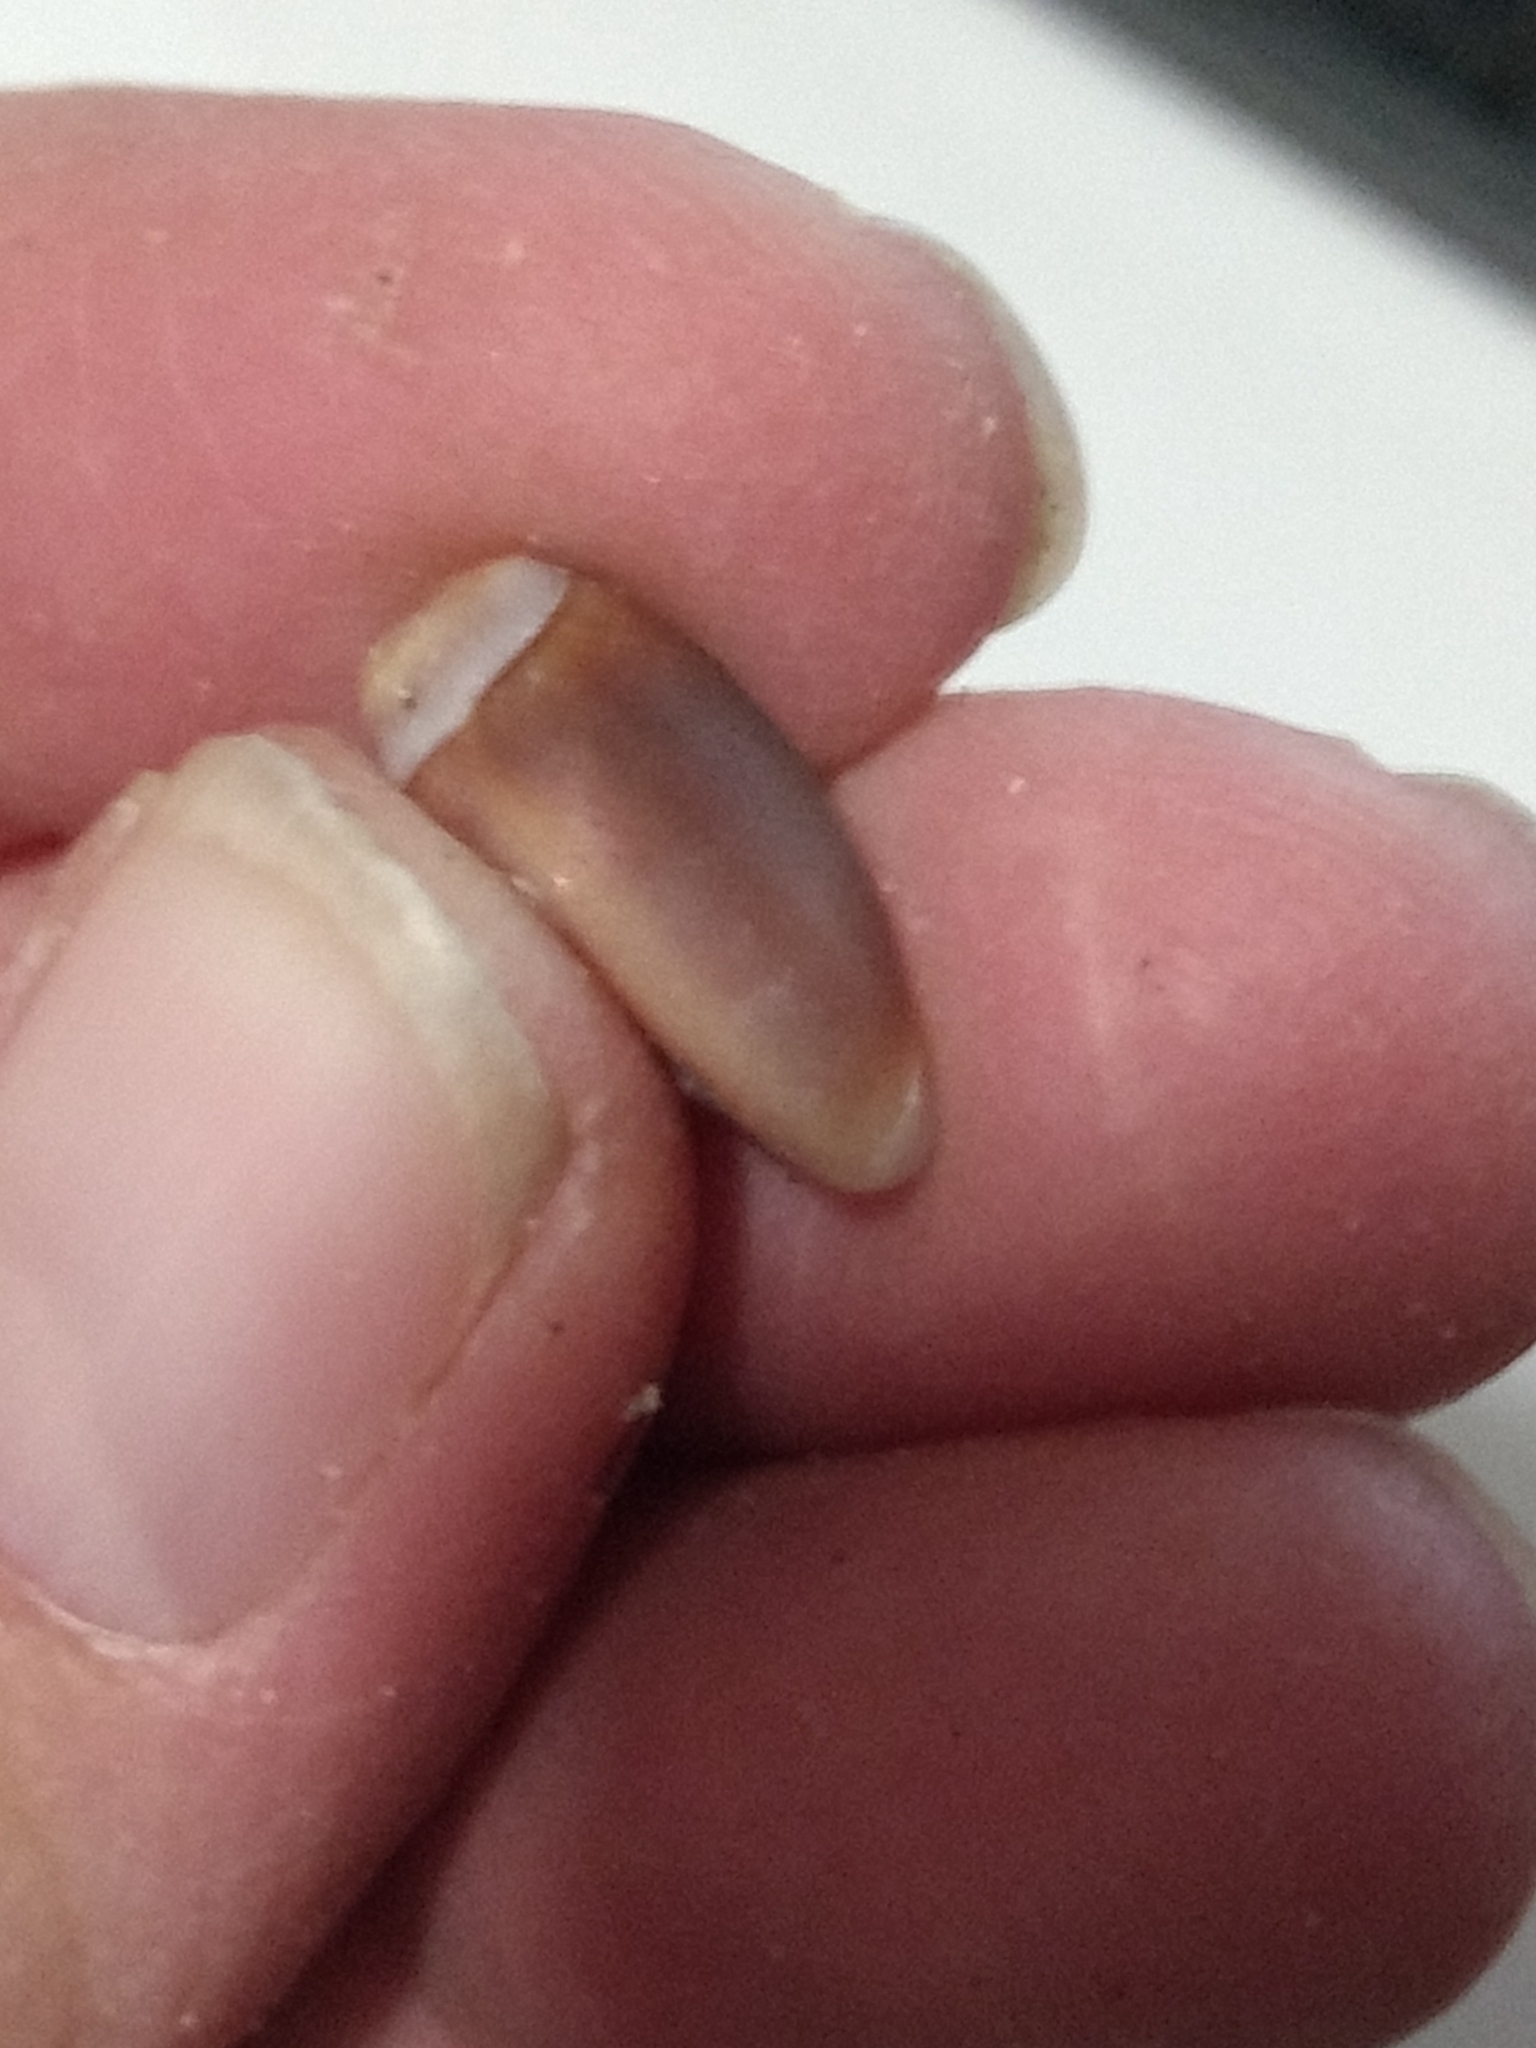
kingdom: Animalia
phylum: Mollusca
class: Gastropoda
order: Neogastropoda
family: Olividae
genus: Callianax
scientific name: Callianax biplicata
